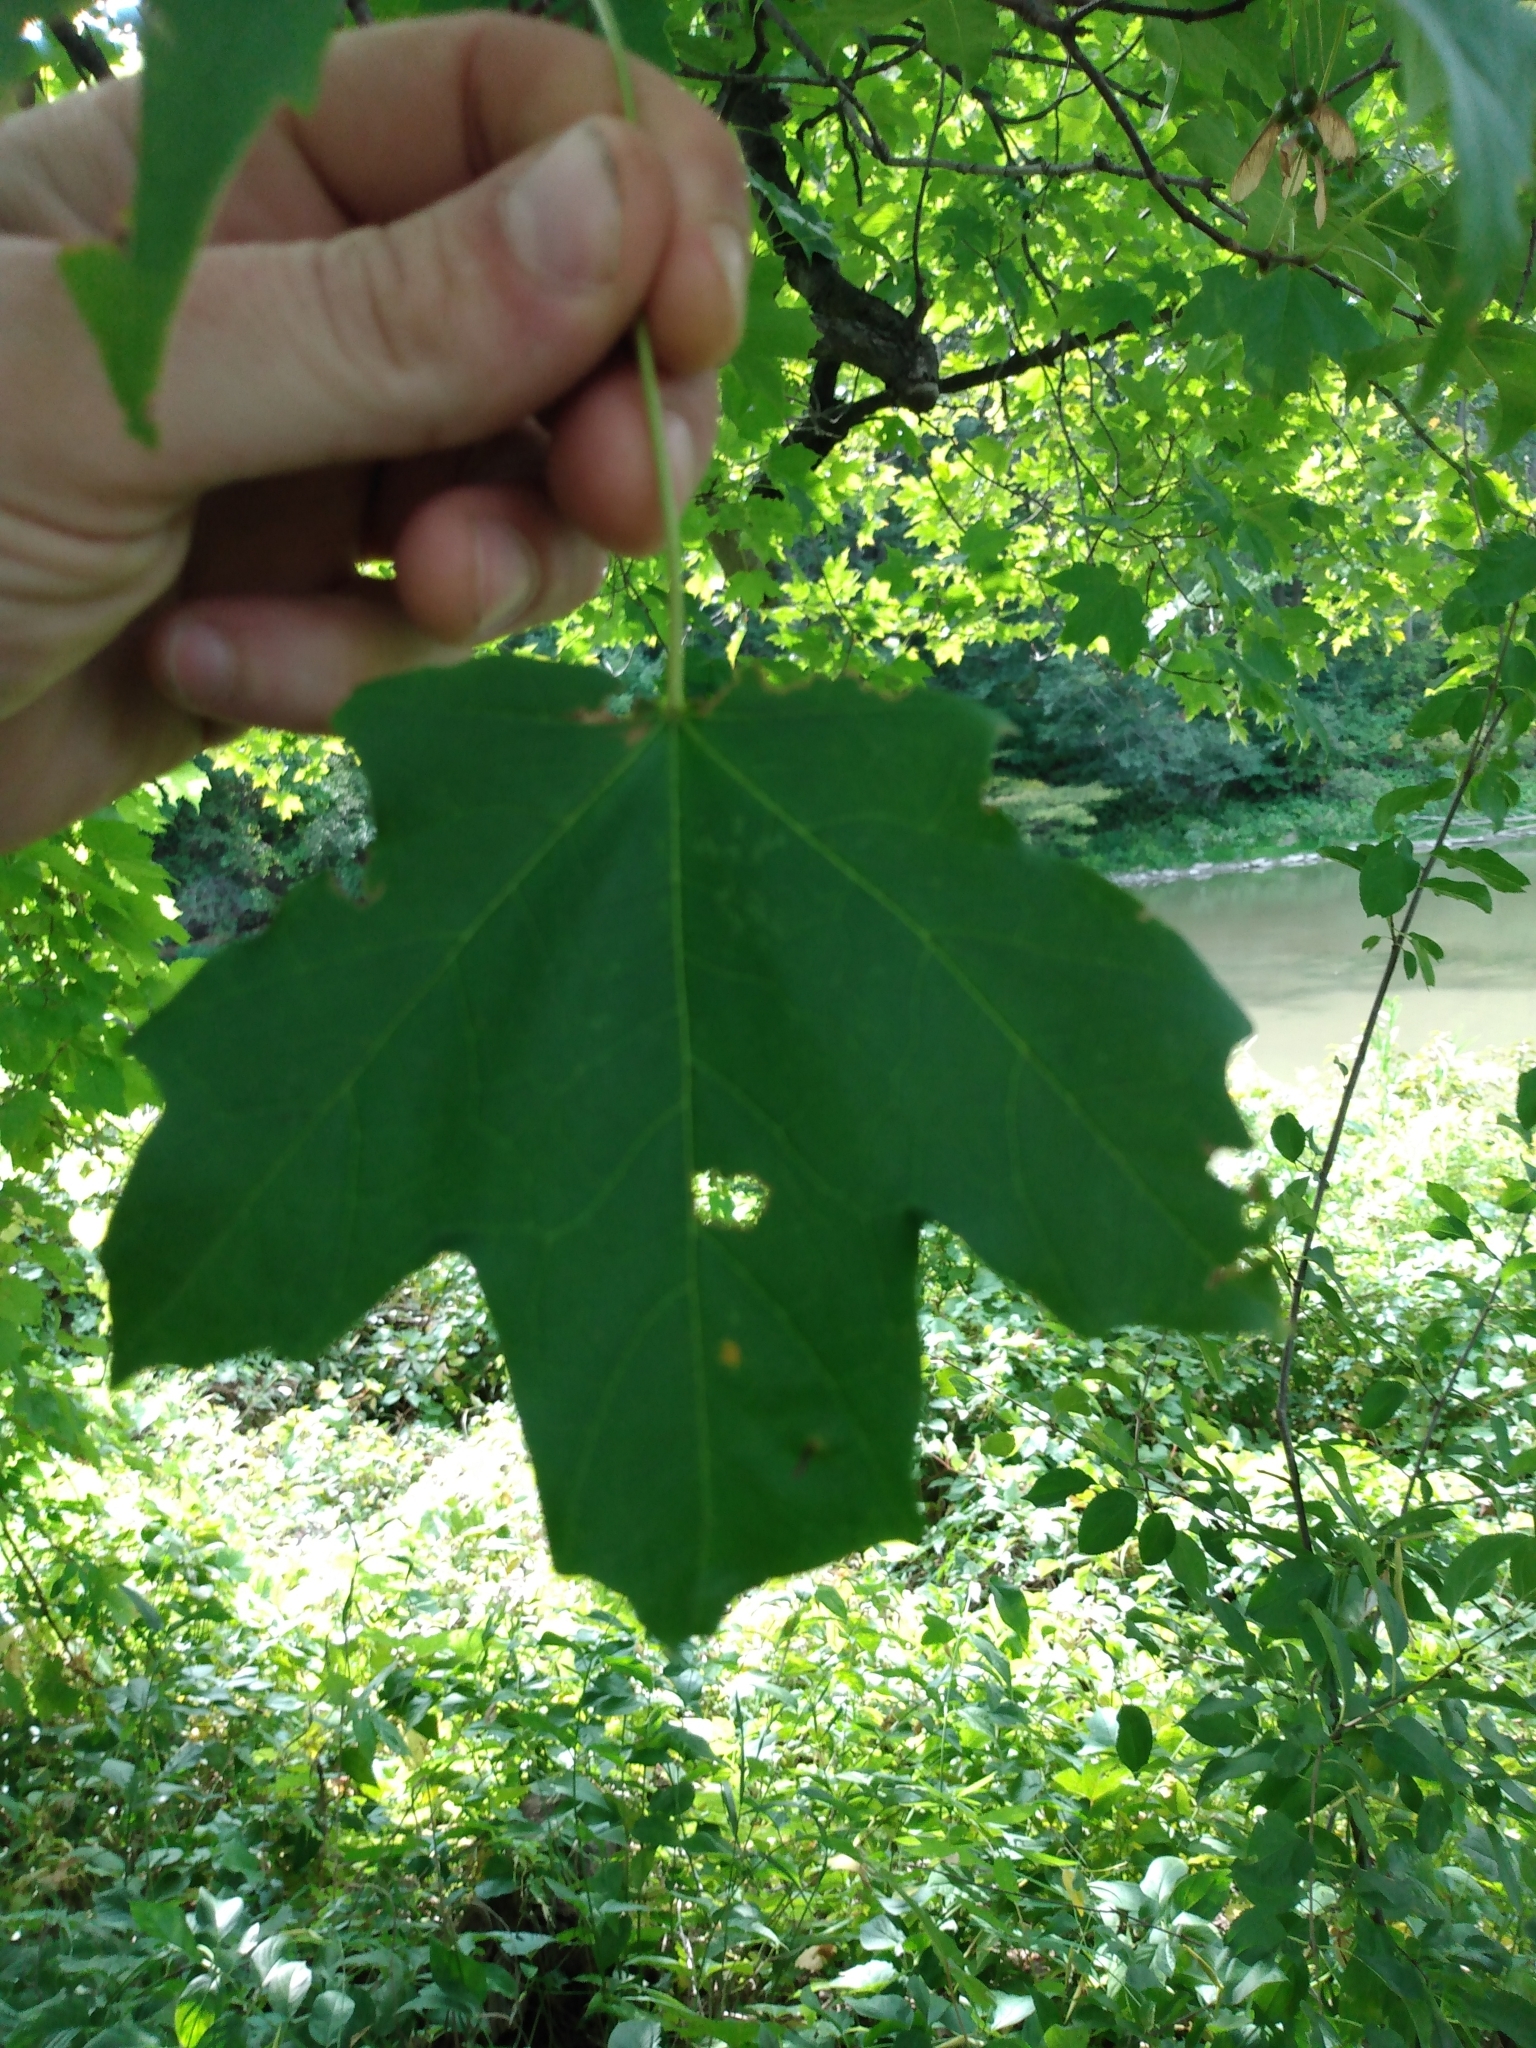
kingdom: Plantae
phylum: Tracheophyta
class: Magnoliopsida
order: Sapindales
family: Sapindaceae
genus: Acer
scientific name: Acer saccharum
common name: Sugar maple
